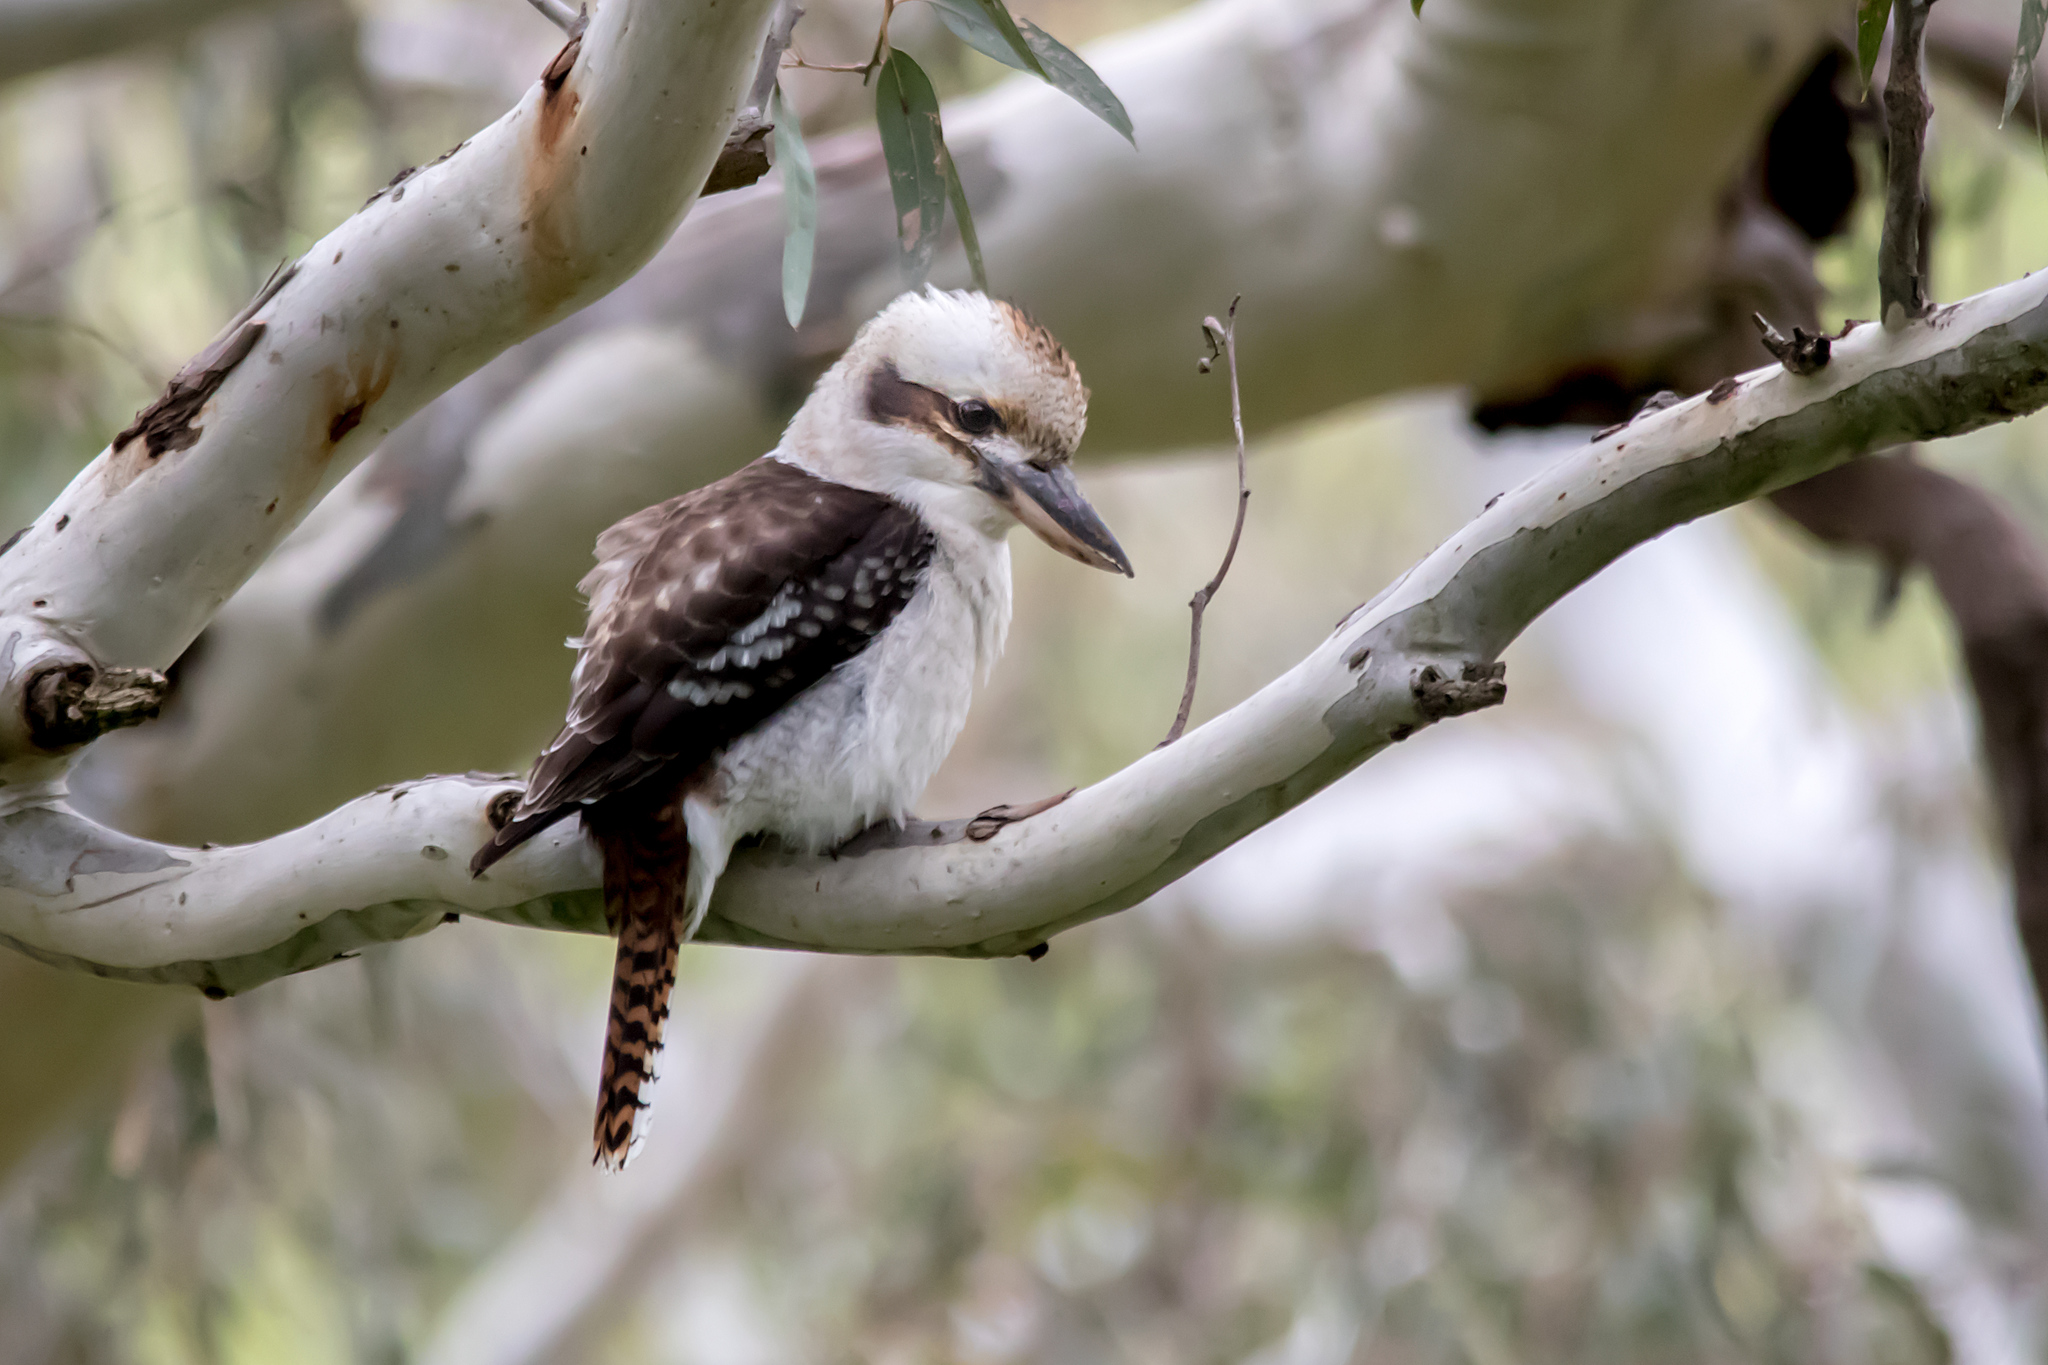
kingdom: Animalia
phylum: Chordata
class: Aves
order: Coraciiformes
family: Alcedinidae
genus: Dacelo
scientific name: Dacelo novaeguineae
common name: Laughing kookaburra
